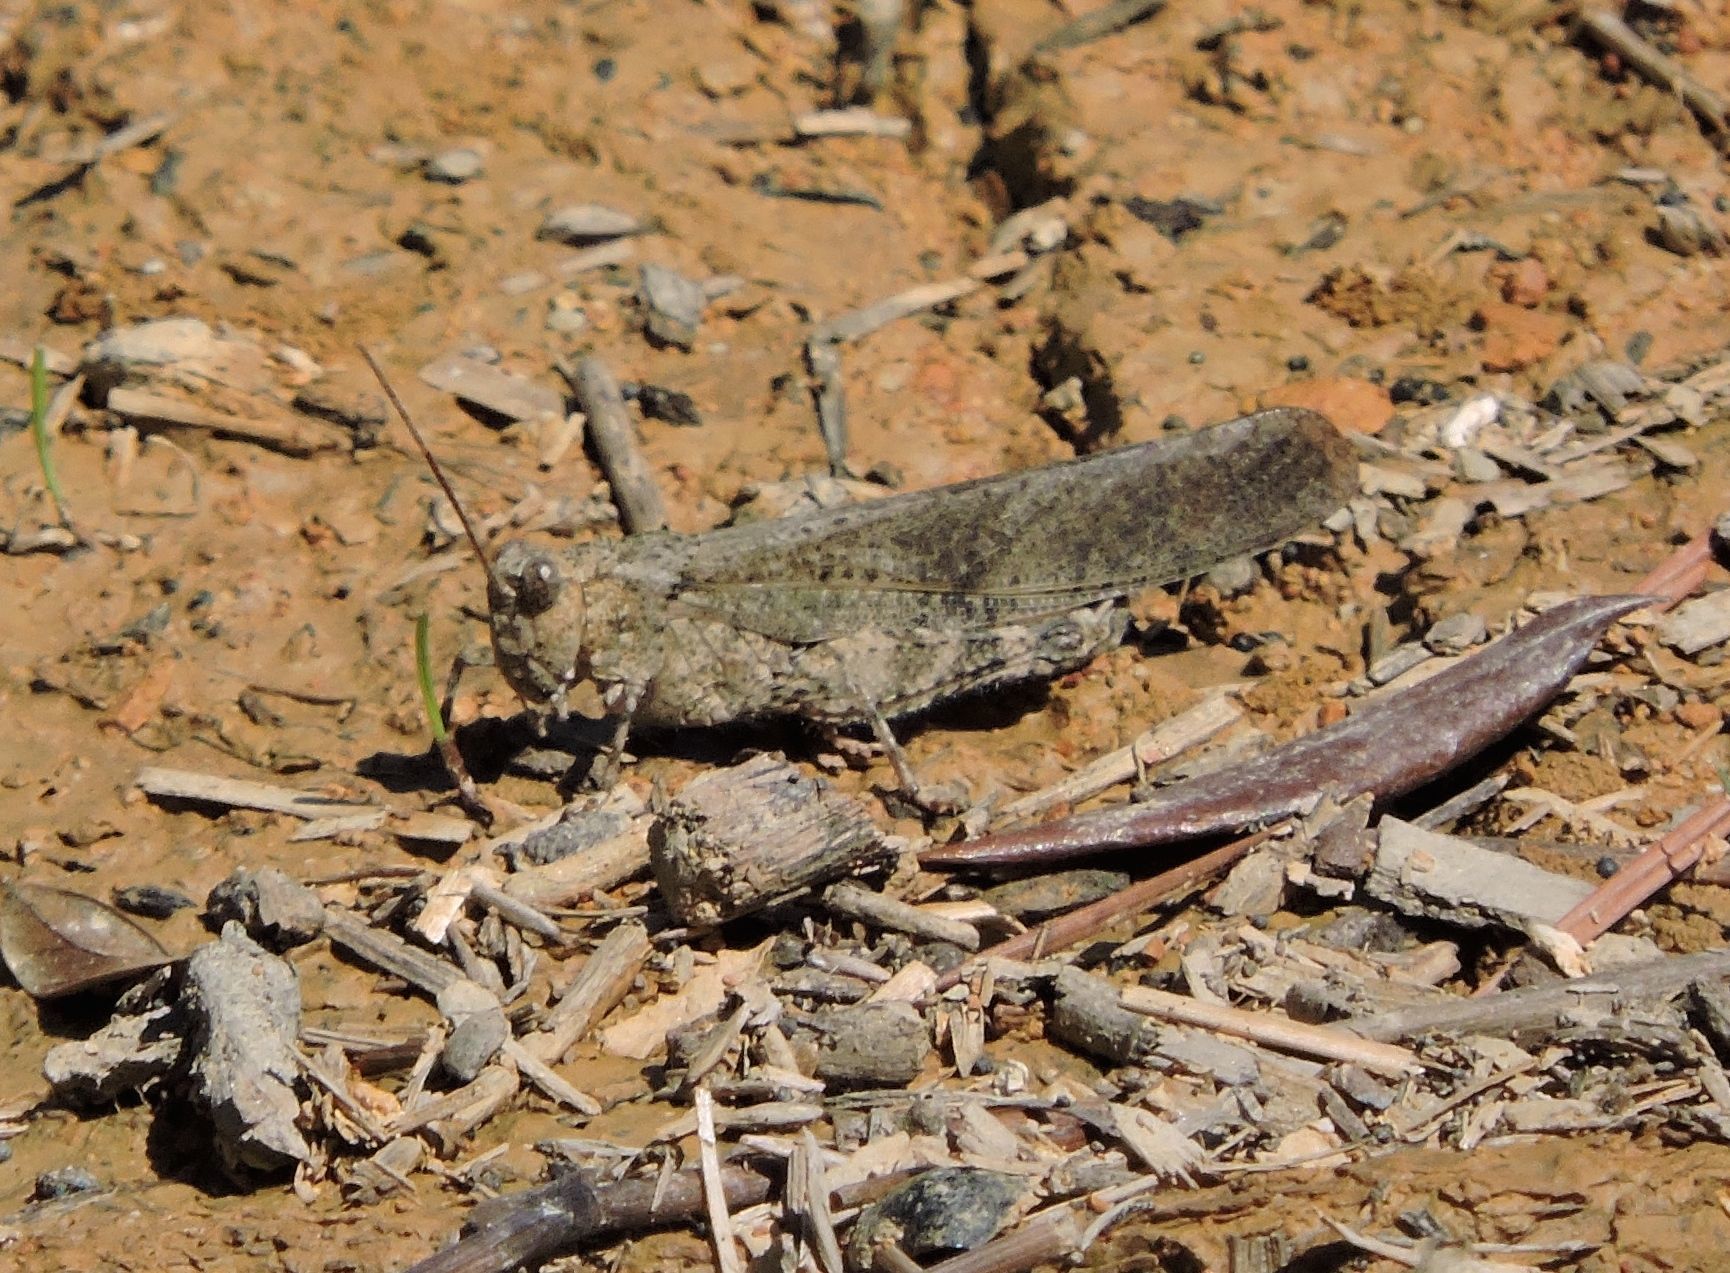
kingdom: Animalia
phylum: Arthropoda
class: Insecta
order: Orthoptera
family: Acrididae
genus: Dissosteira
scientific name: Dissosteira carolina
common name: Carolina grasshopper
